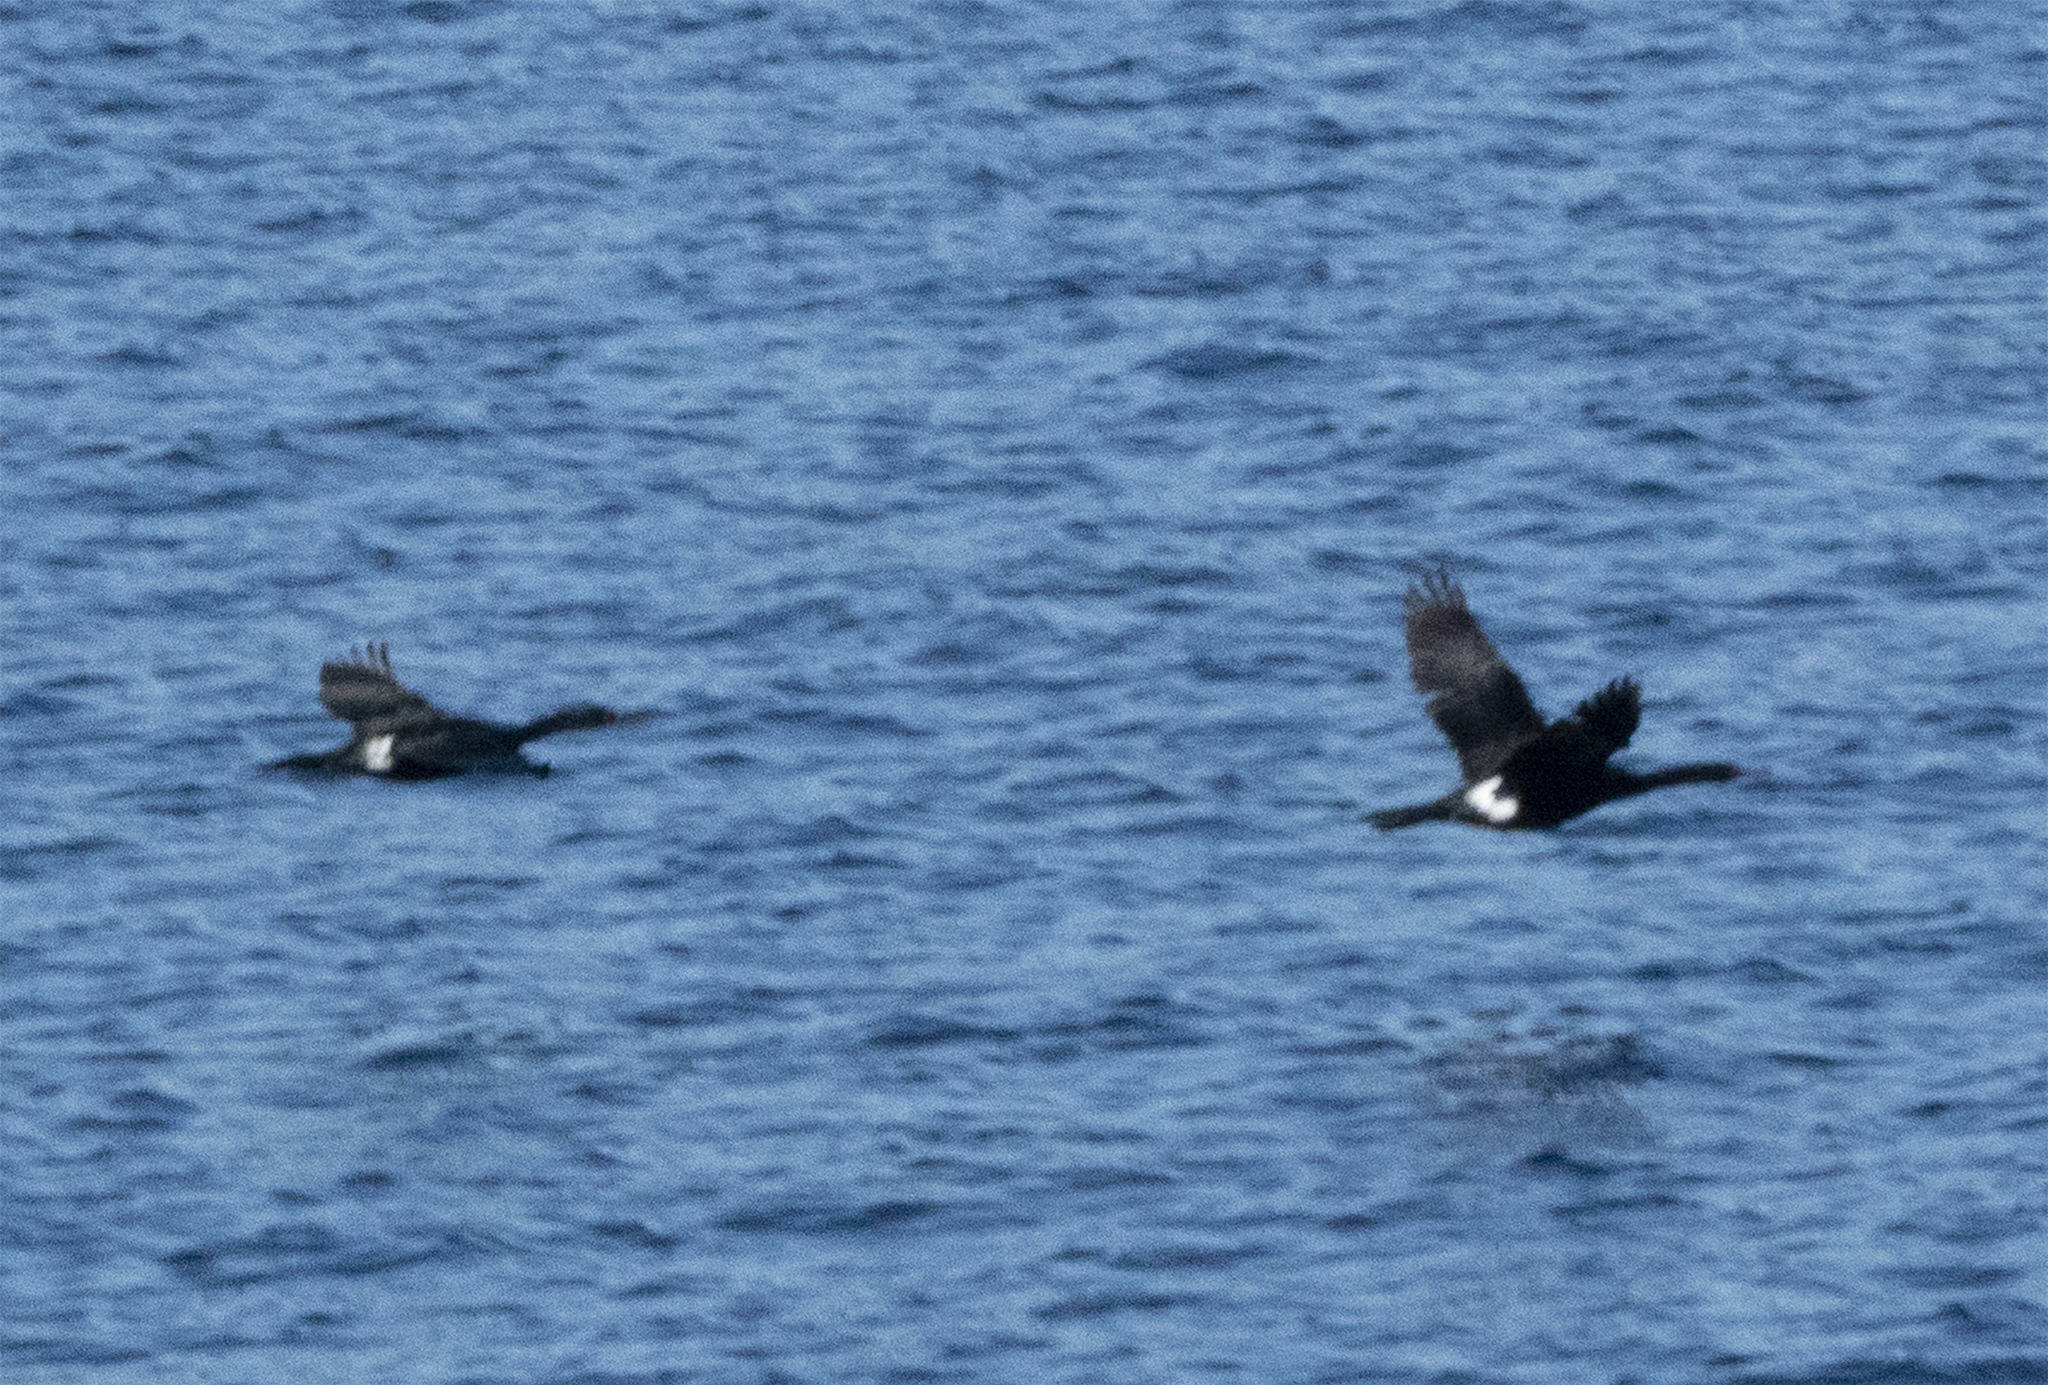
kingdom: Animalia
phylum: Chordata
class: Aves
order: Suliformes
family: Phalacrocoracidae
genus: Phalacrocorax
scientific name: Phalacrocorax pelagicus
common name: Pelagic cormorant
